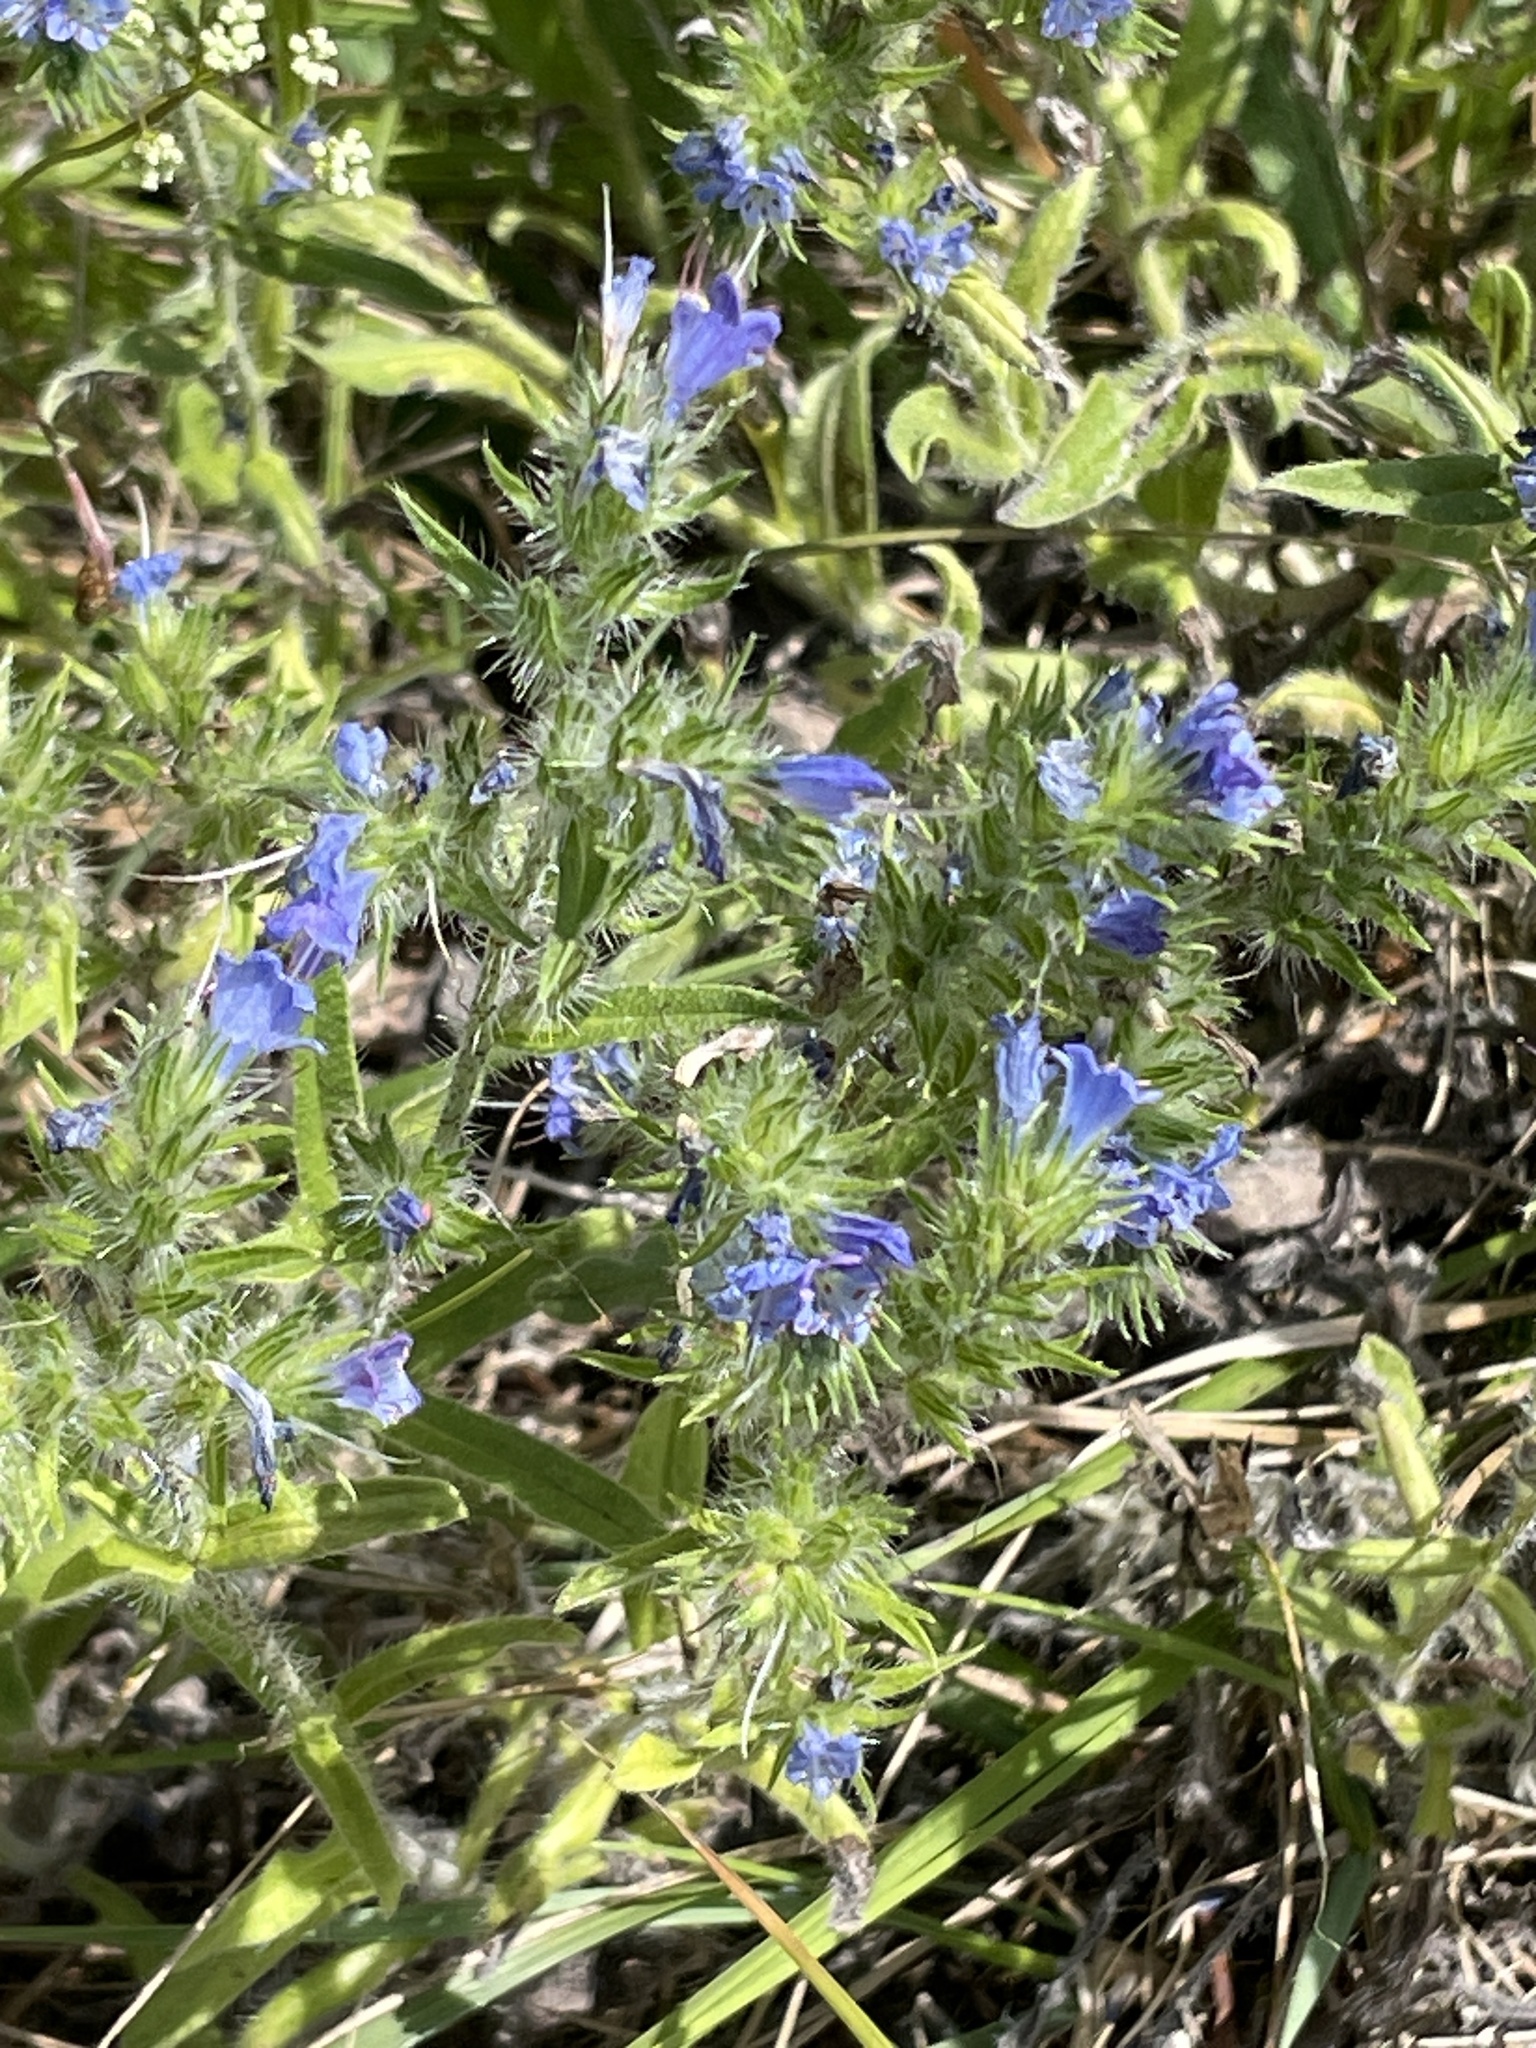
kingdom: Plantae
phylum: Tracheophyta
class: Magnoliopsida
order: Boraginales
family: Boraginaceae
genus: Echium
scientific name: Echium vulgare
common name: Common viper's bugloss
